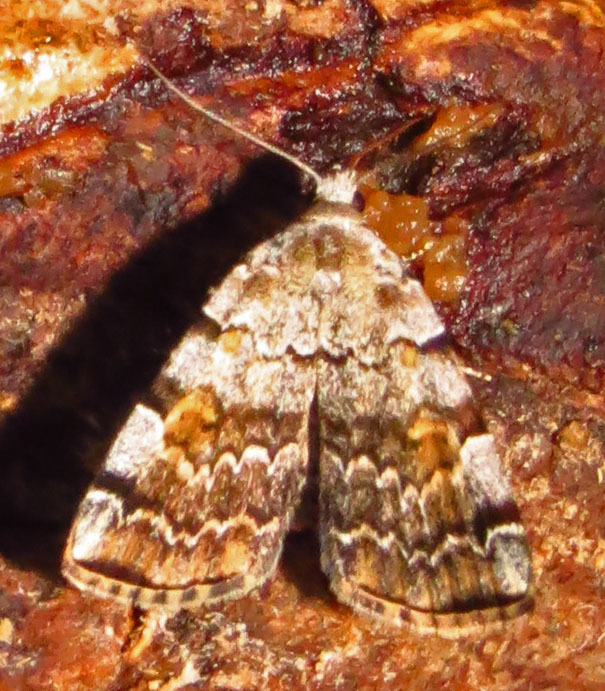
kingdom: Animalia
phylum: Arthropoda
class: Insecta
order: Lepidoptera
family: Erebidae
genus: Idia
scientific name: Idia americalis
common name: American idia moth
